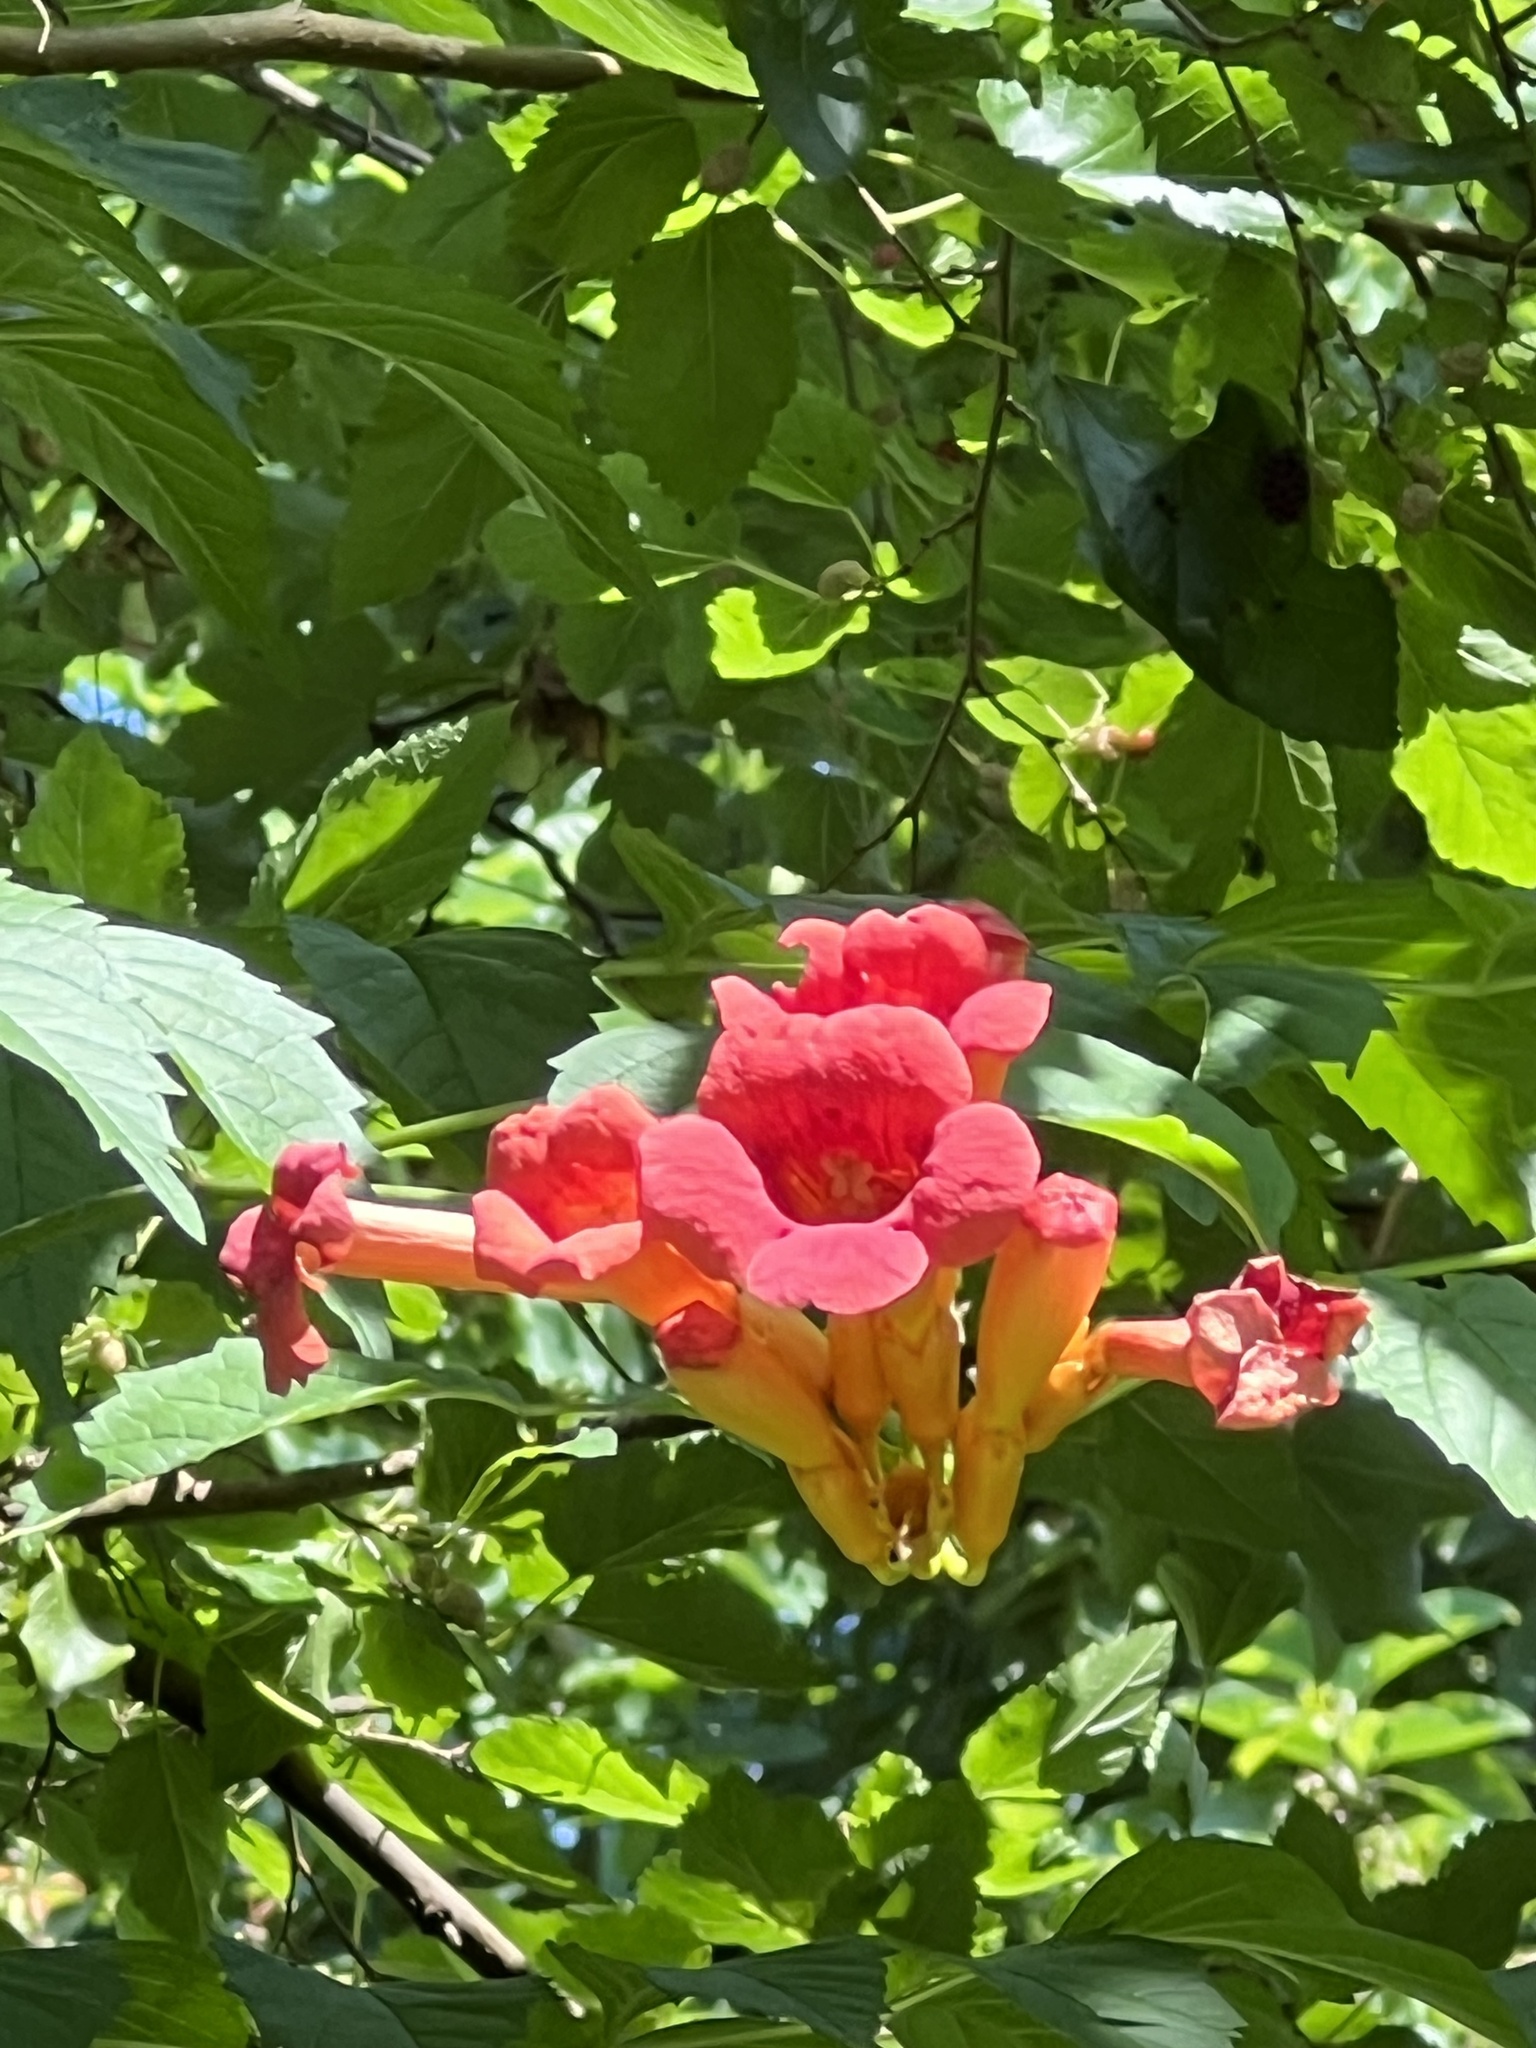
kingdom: Plantae
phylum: Tracheophyta
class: Magnoliopsida
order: Lamiales
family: Bignoniaceae
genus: Campsis
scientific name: Campsis radicans
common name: Trumpet-creeper
